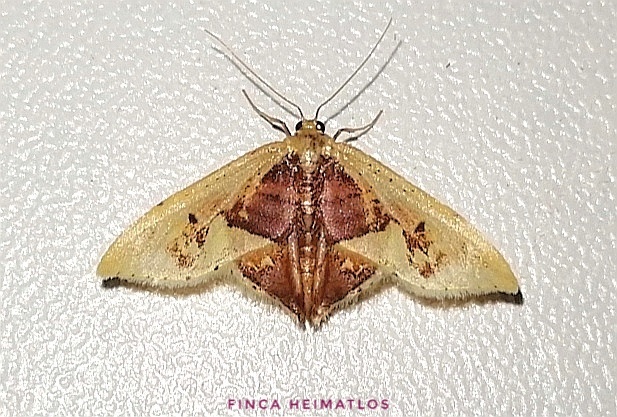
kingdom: Animalia
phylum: Arthropoda
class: Insecta
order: Lepidoptera
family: Geometridae
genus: Idaea
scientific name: Idaea flavicosta
